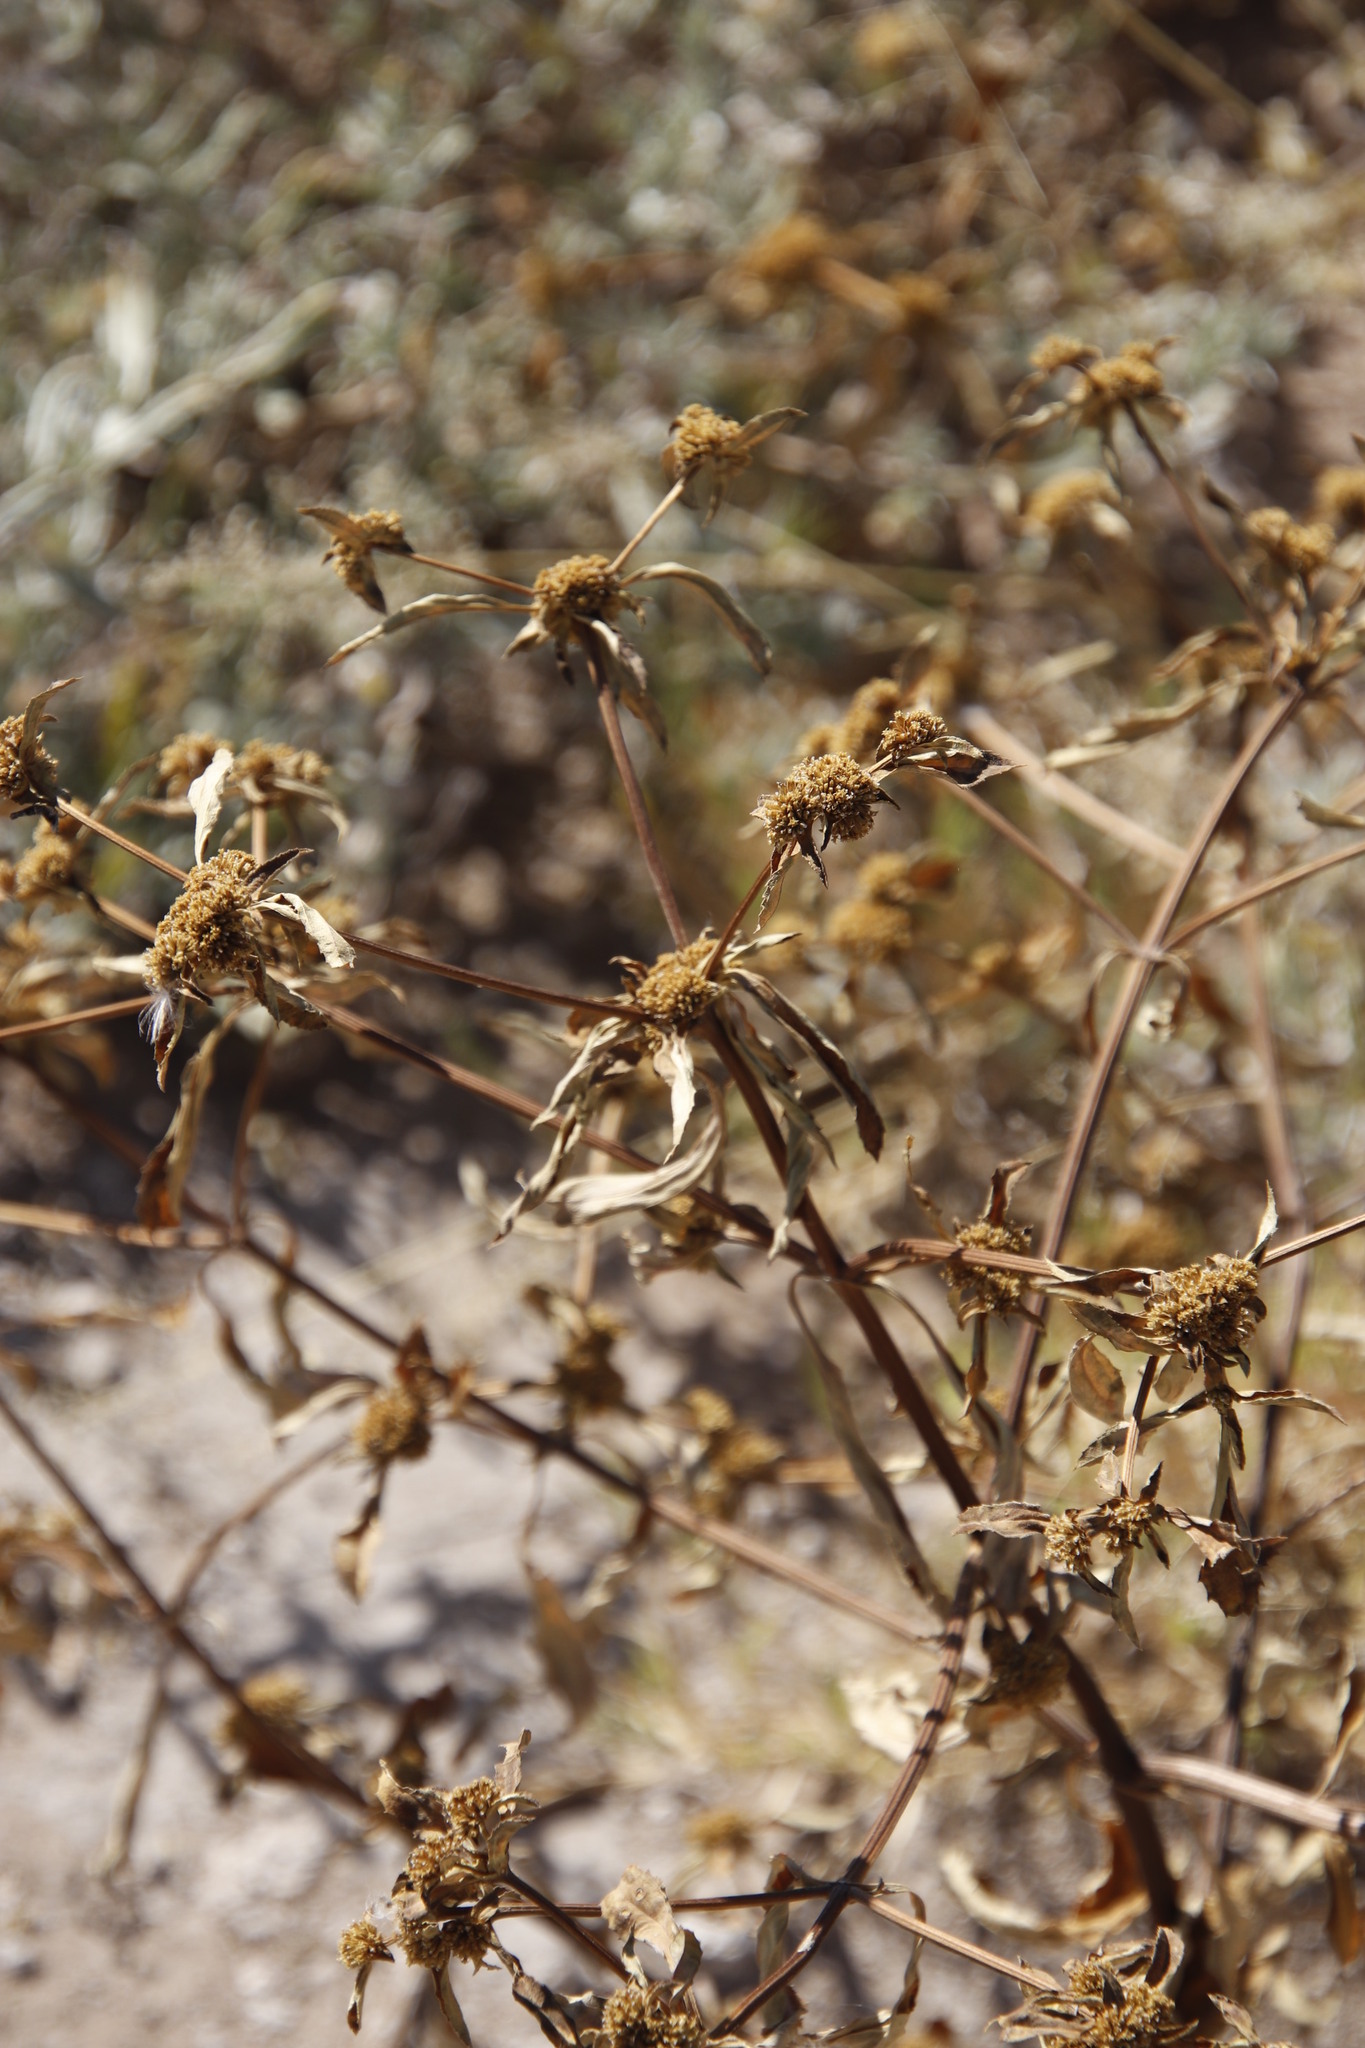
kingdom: Plantae
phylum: Tracheophyta
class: Magnoliopsida
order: Asterales
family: Asteraceae
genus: Flaveria
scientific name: Flaveria bidentis
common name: Coastal plain yellowtops
